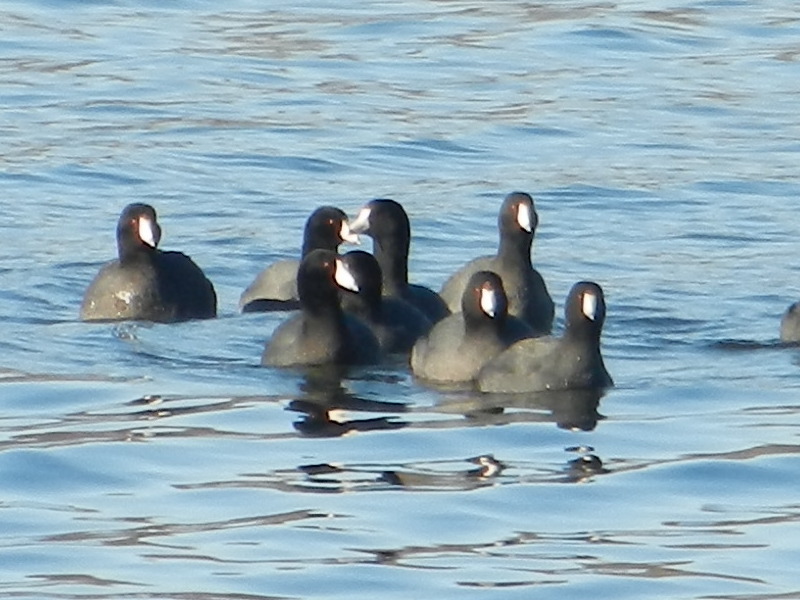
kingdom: Animalia
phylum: Chordata
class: Aves
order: Gruiformes
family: Rallidae
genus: Fulica
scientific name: Fulica americana
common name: American coot
